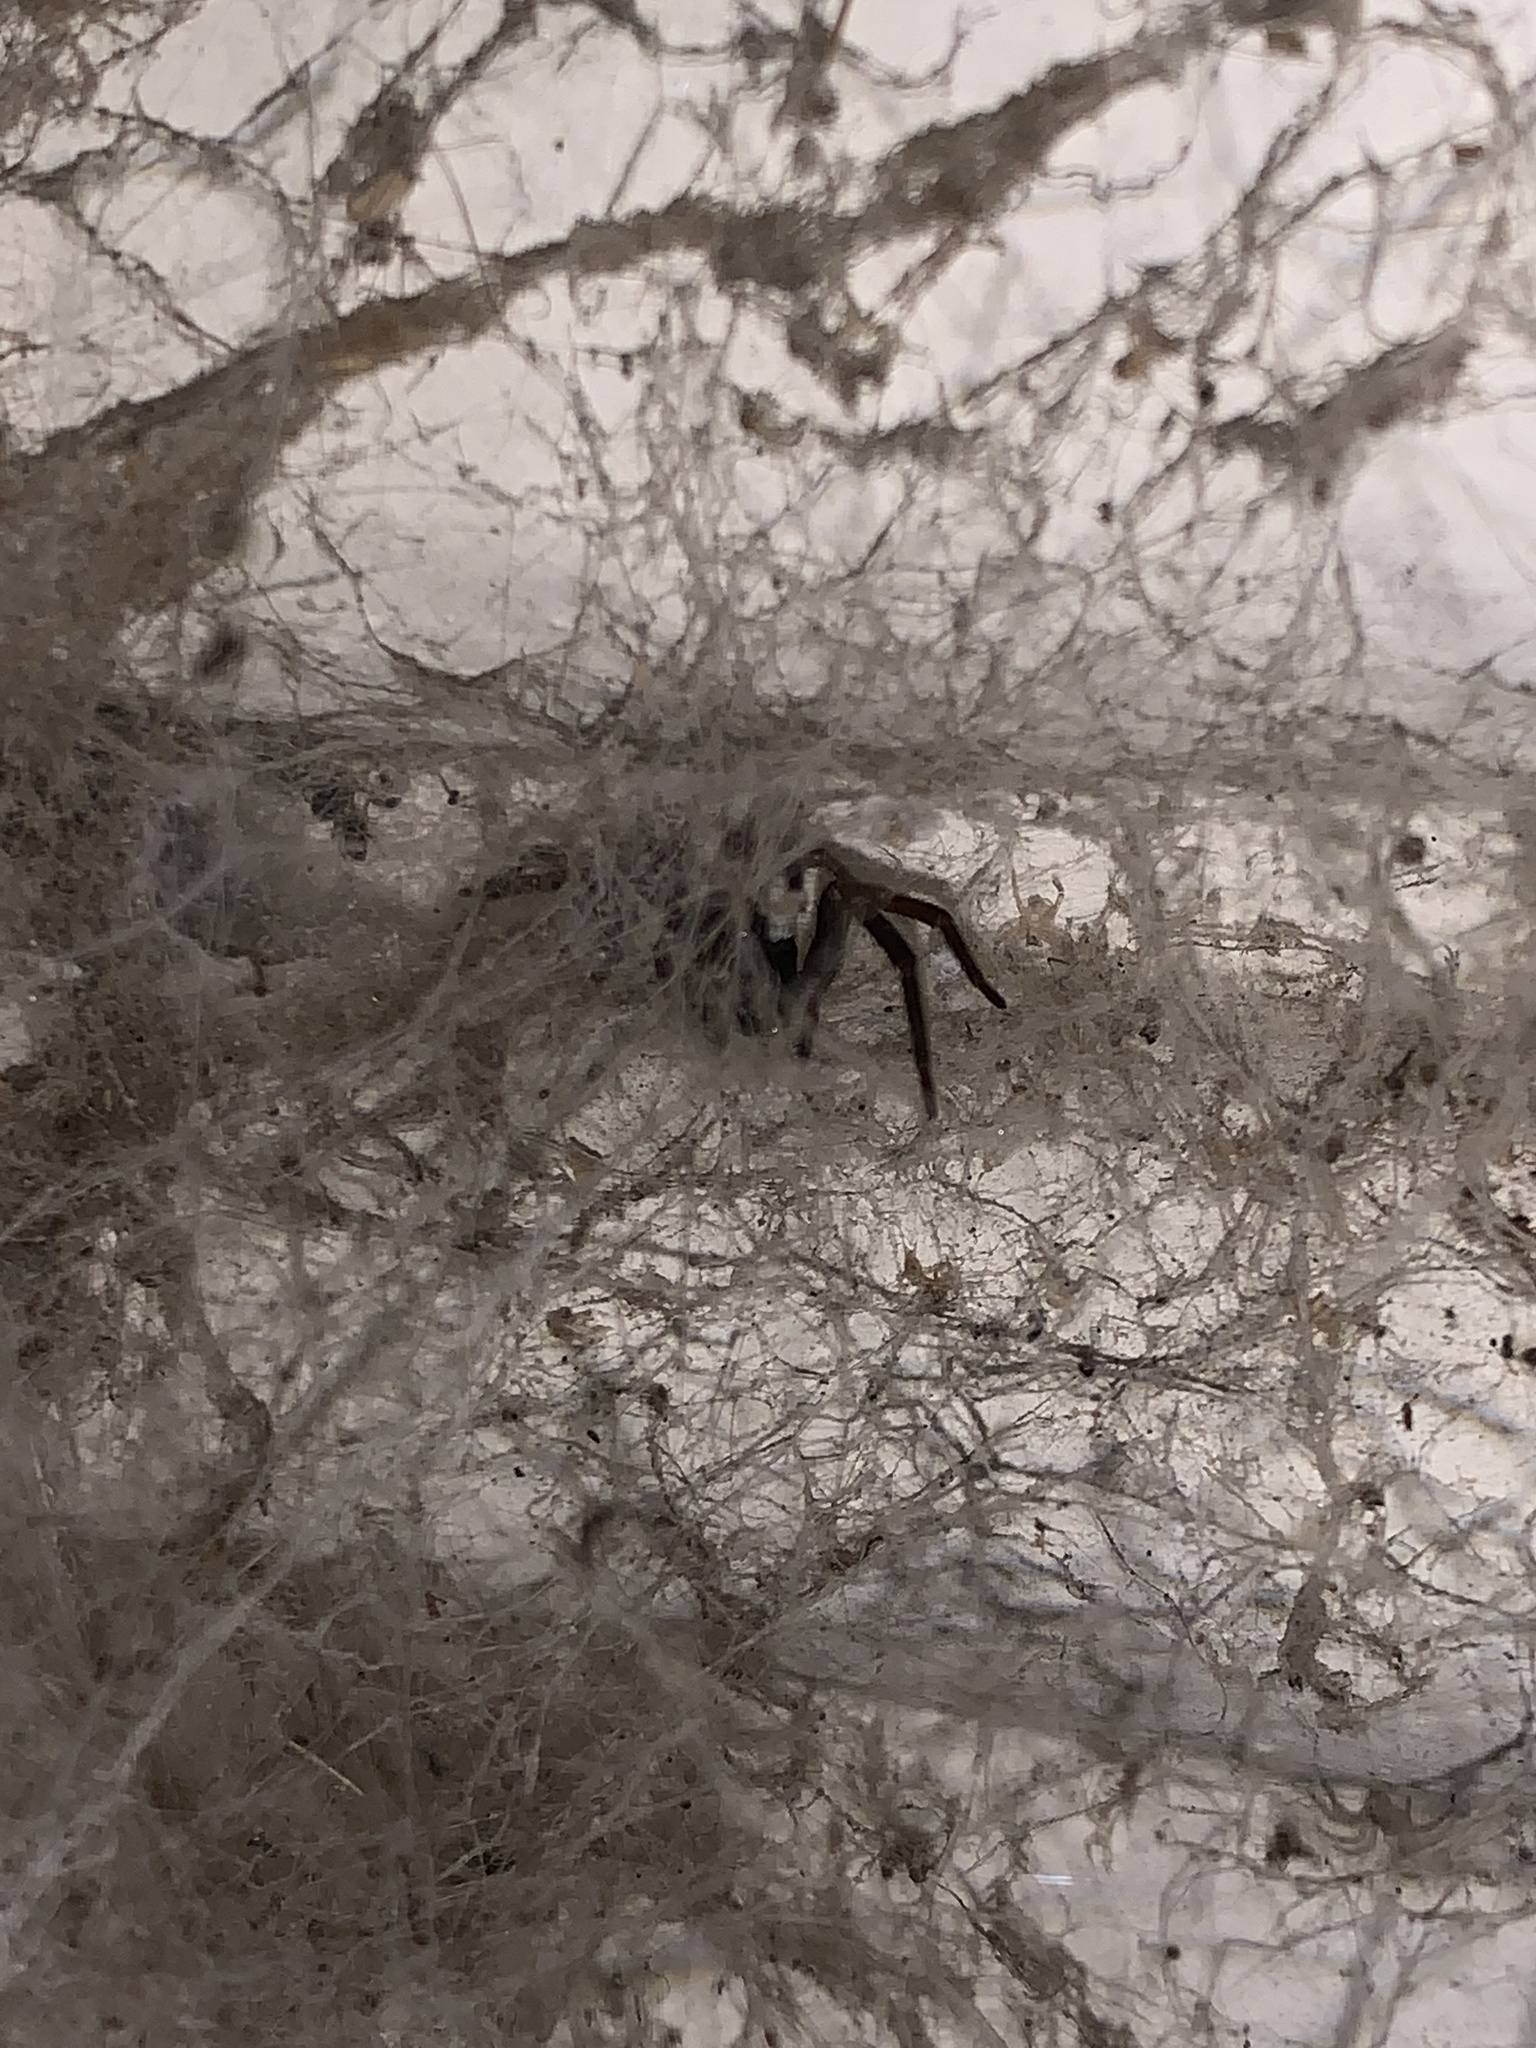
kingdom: Animalia
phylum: Arthropoda
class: Arachnida
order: Araneae
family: Filistatidae
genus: Kukulcania
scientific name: Kukulcania hibernalis
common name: Crevice weaver
